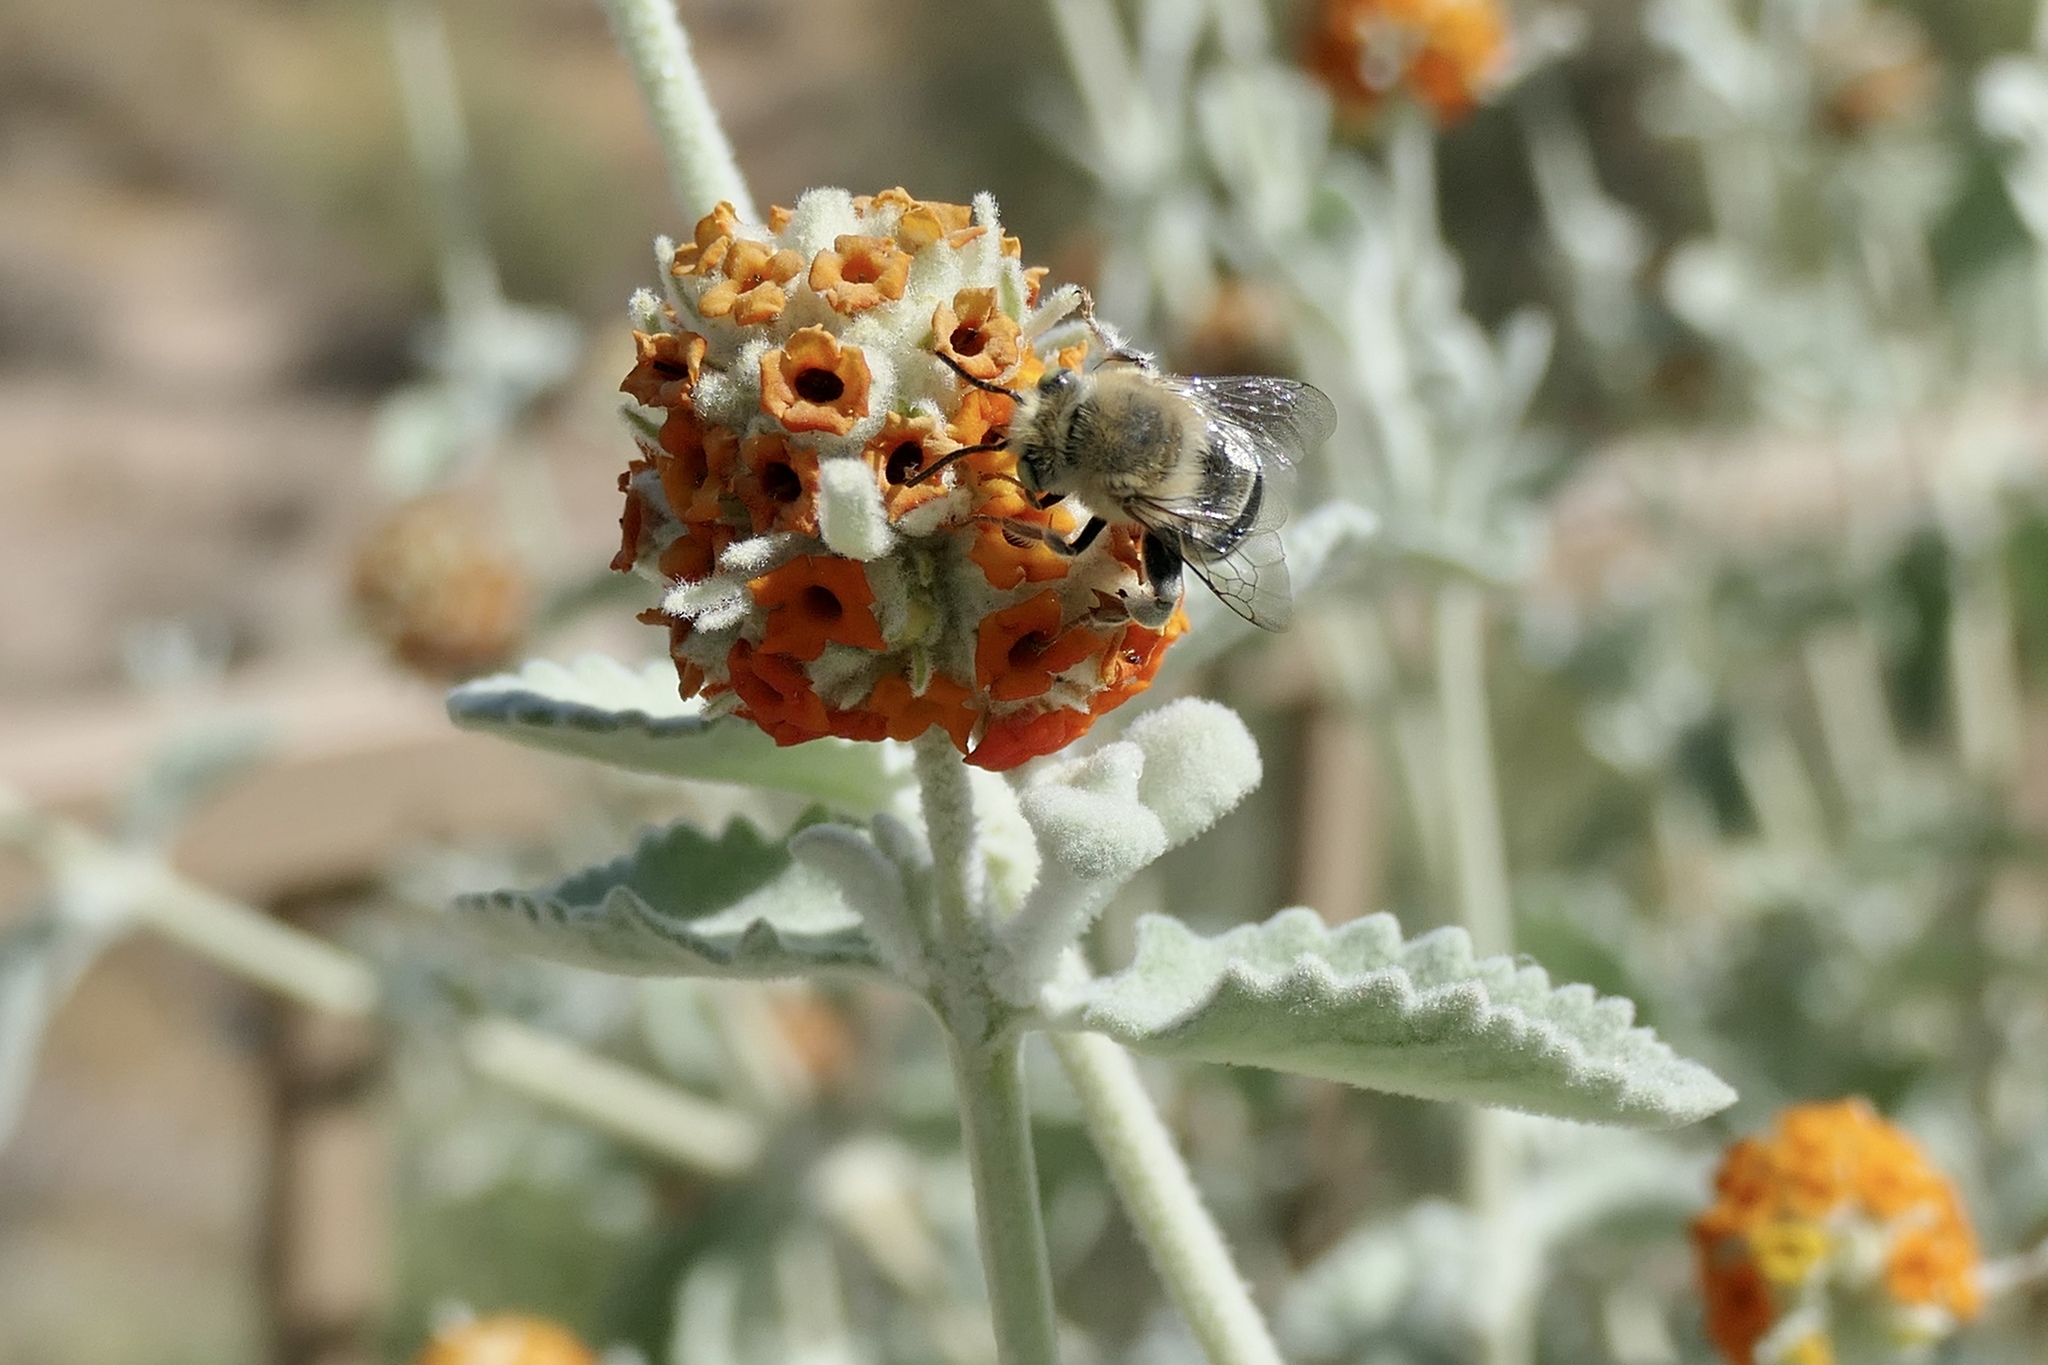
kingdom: Animalia
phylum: Arthropoda
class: Insecta
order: Hymenoptera
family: Apidae
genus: Anthophora
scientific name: Anthophora californica
